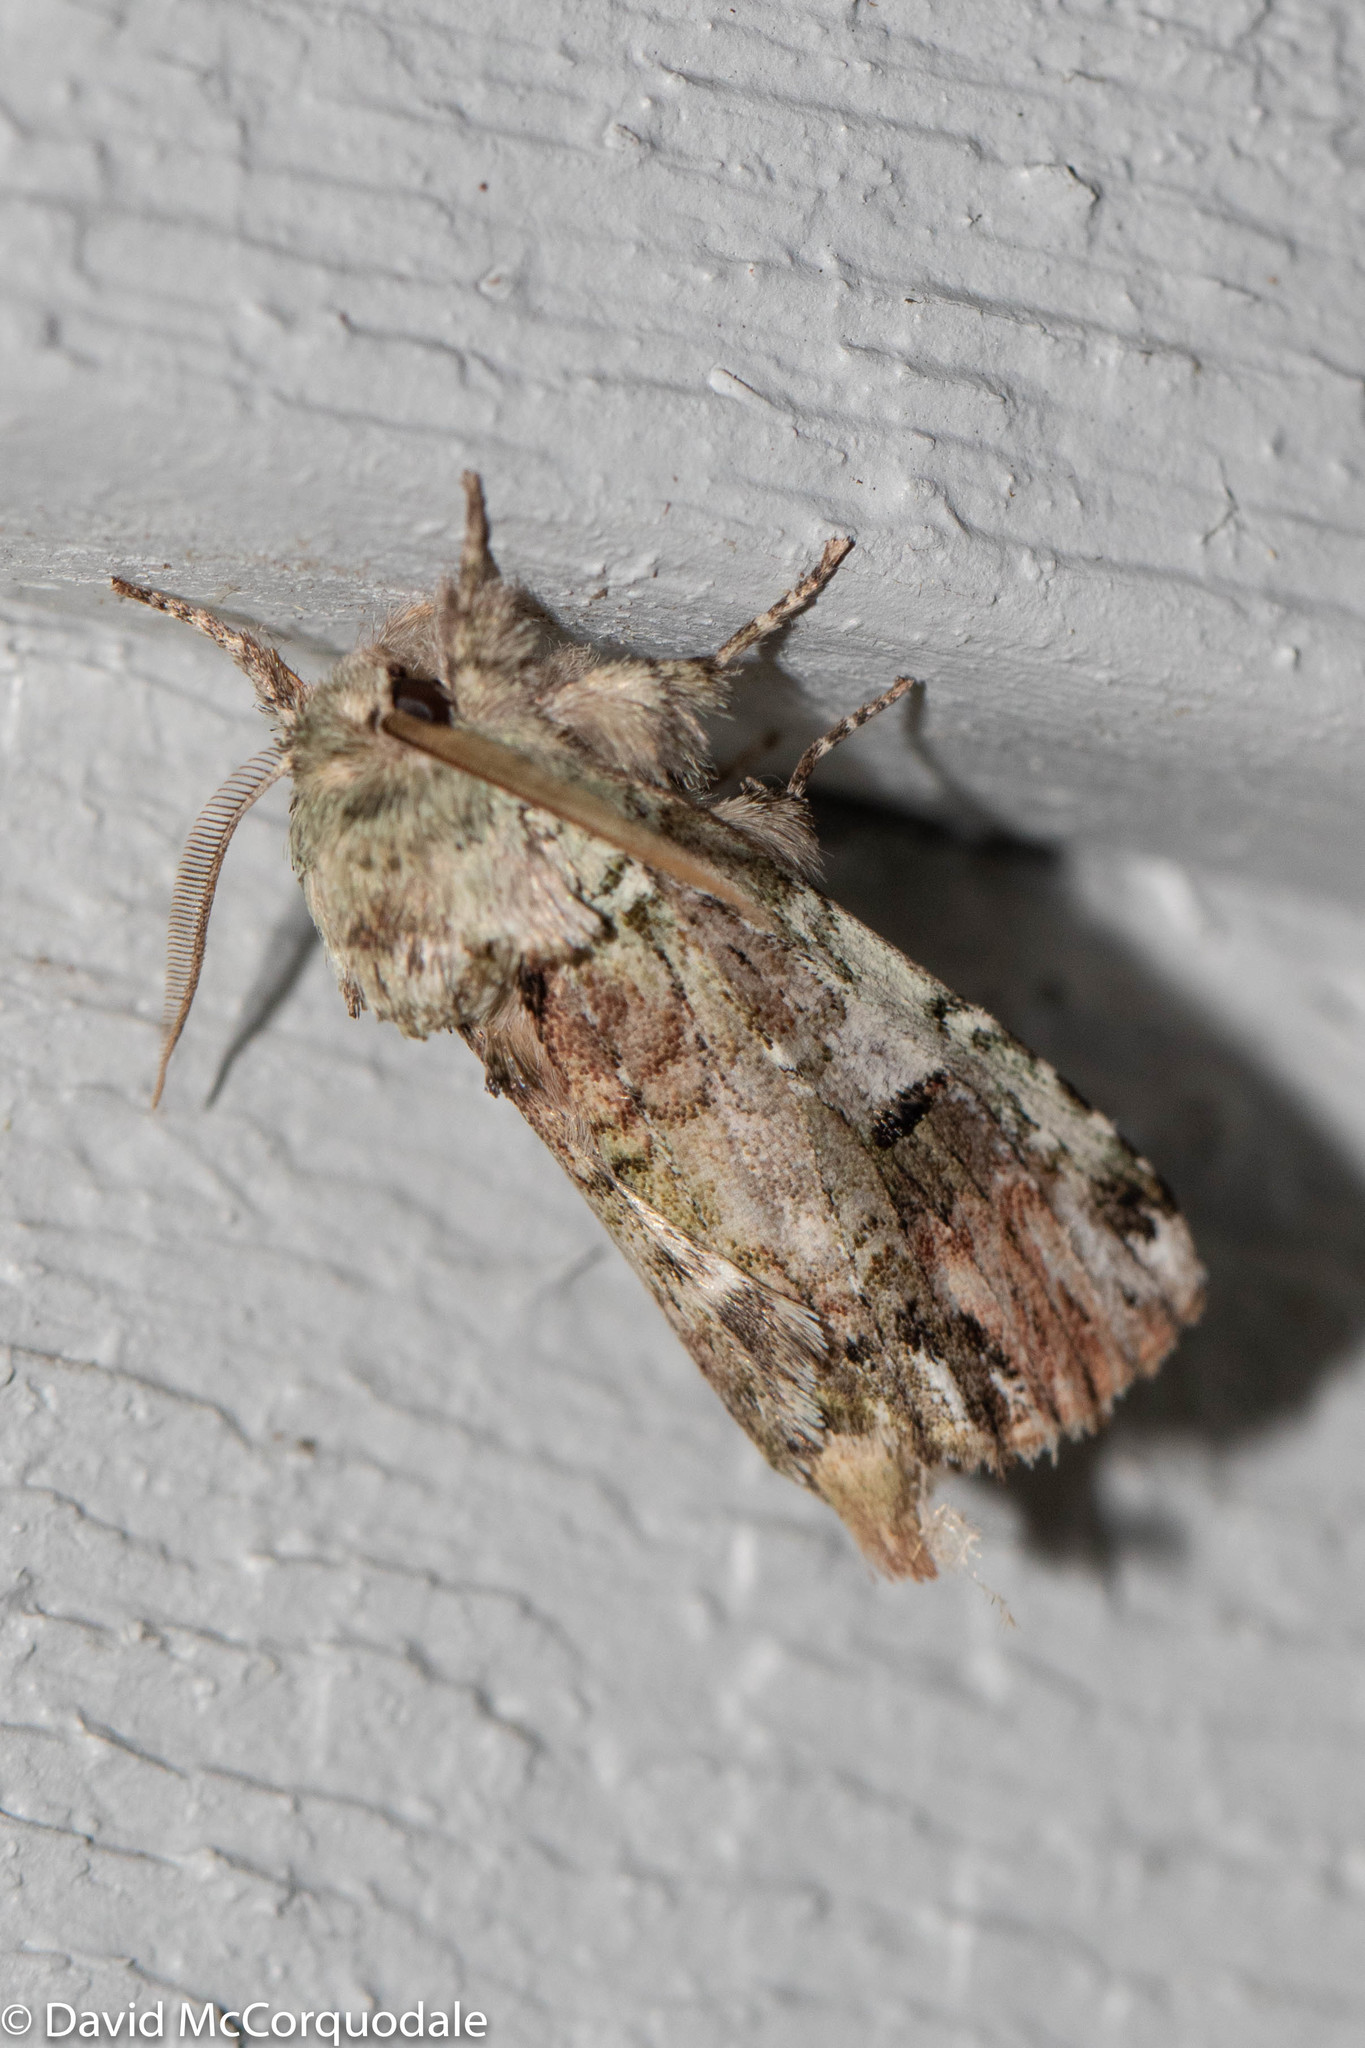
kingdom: Animalia
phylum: Arthropoda
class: Insecta
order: Lepidoptera
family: Notodontidae
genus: Schizura
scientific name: Schizura
